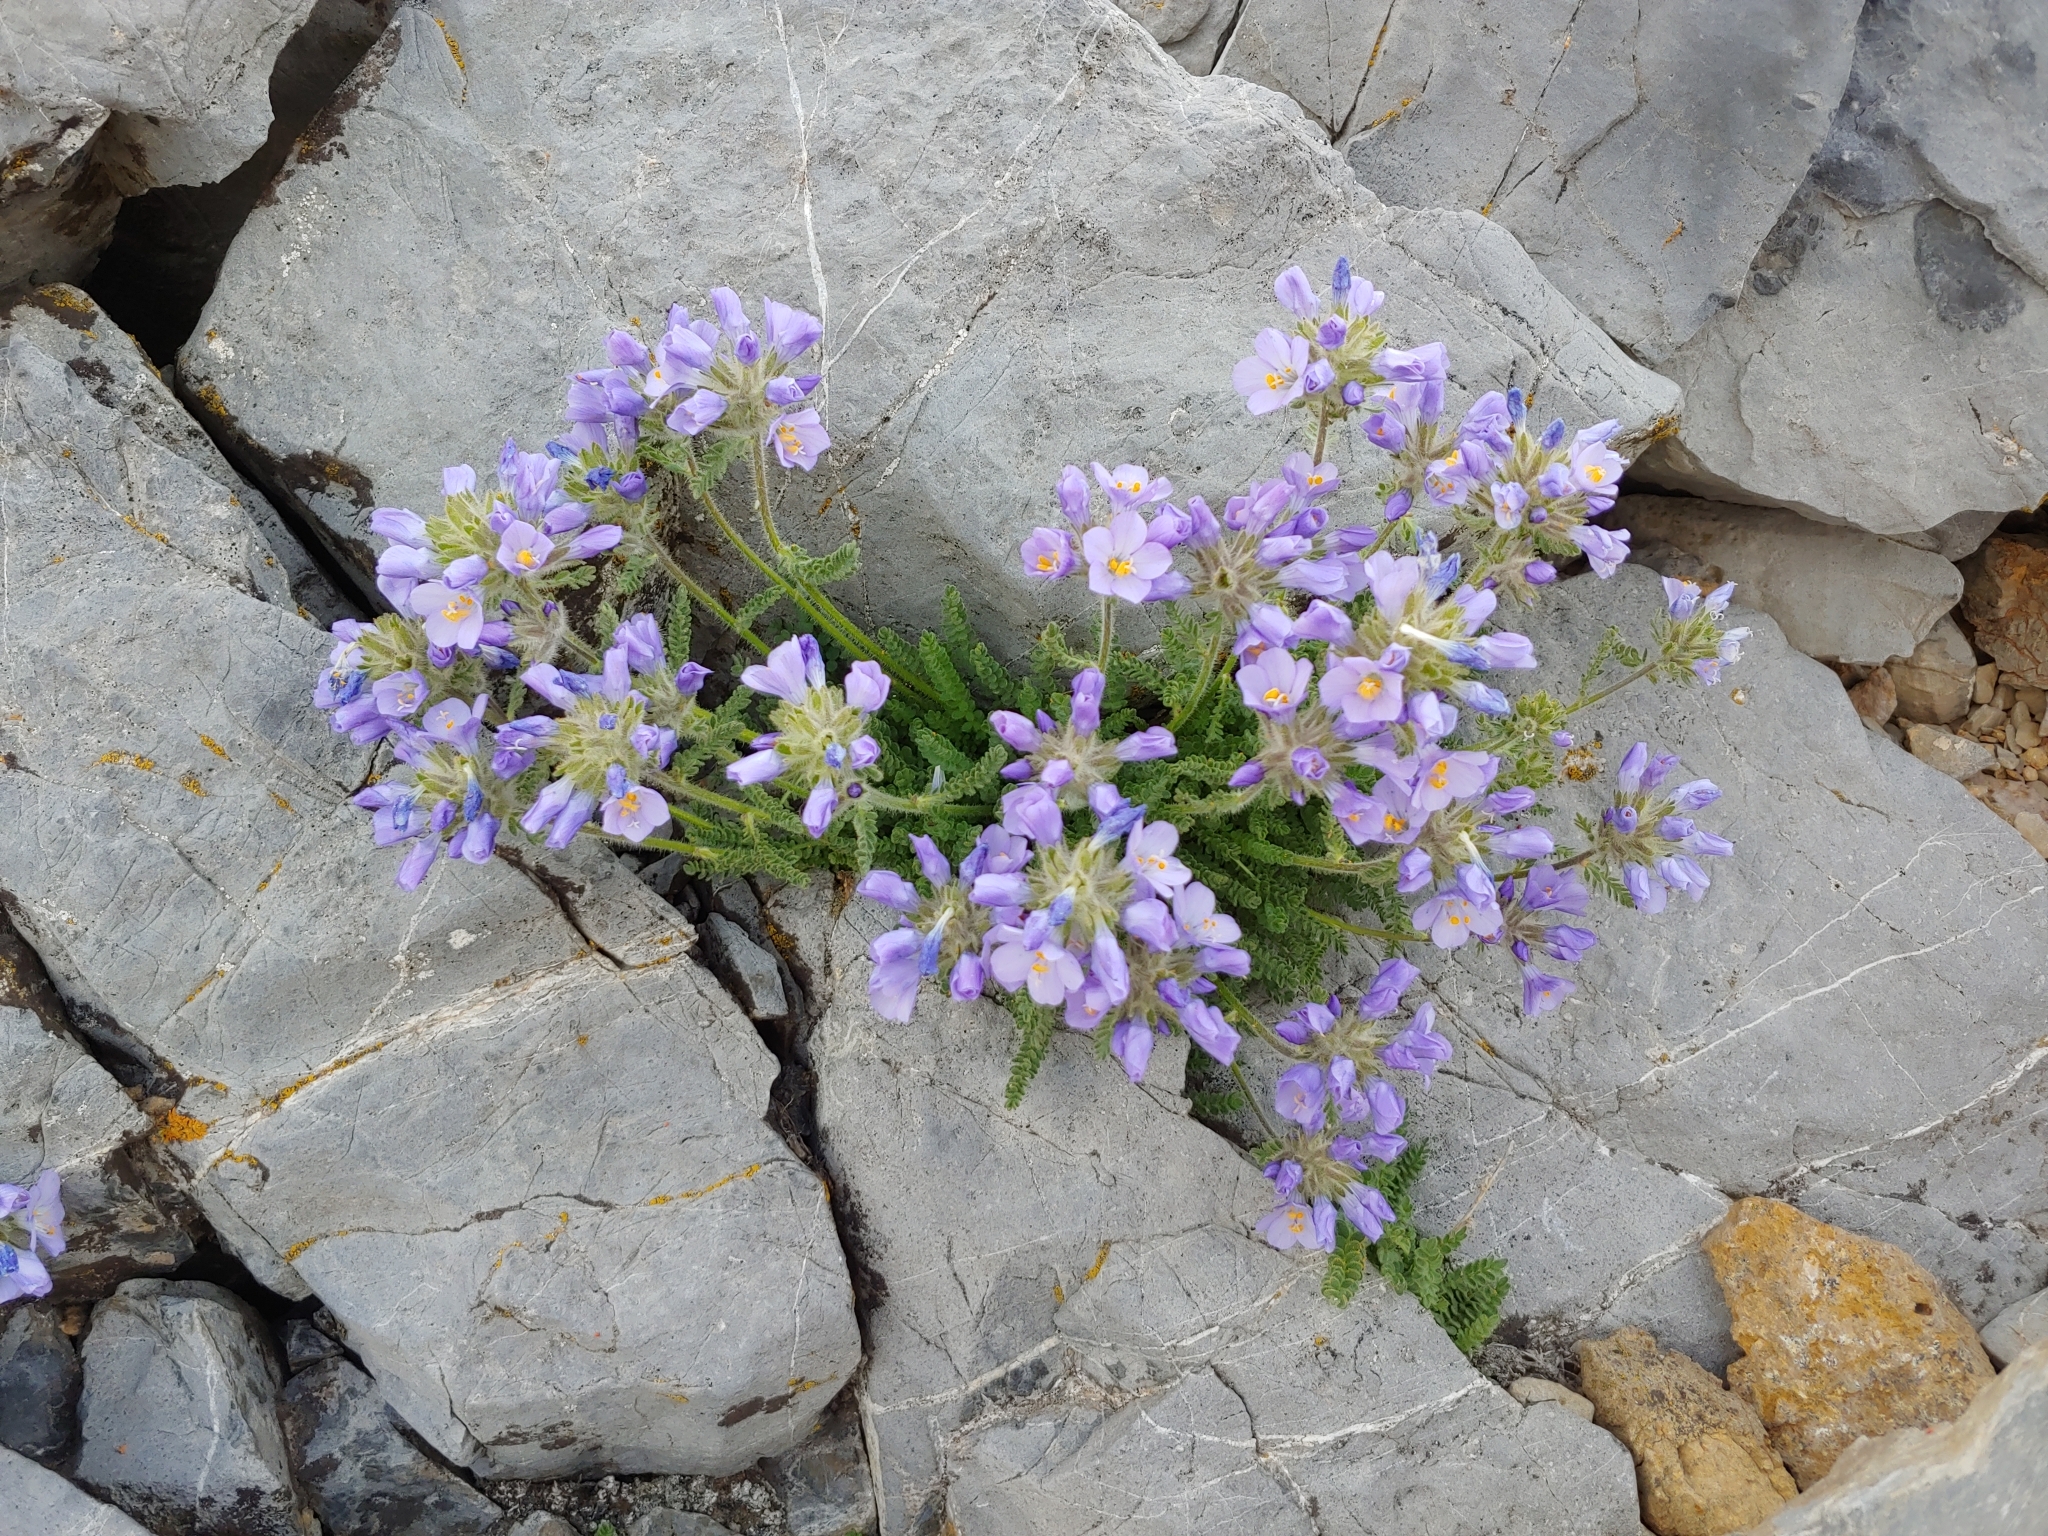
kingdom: Plantae
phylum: Tracheophyta
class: Magnoliopsida
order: Ericales
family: Polemoniaceae
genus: Polemonium
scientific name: Polemonium viscosum
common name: Skunk jacob's-ladder
